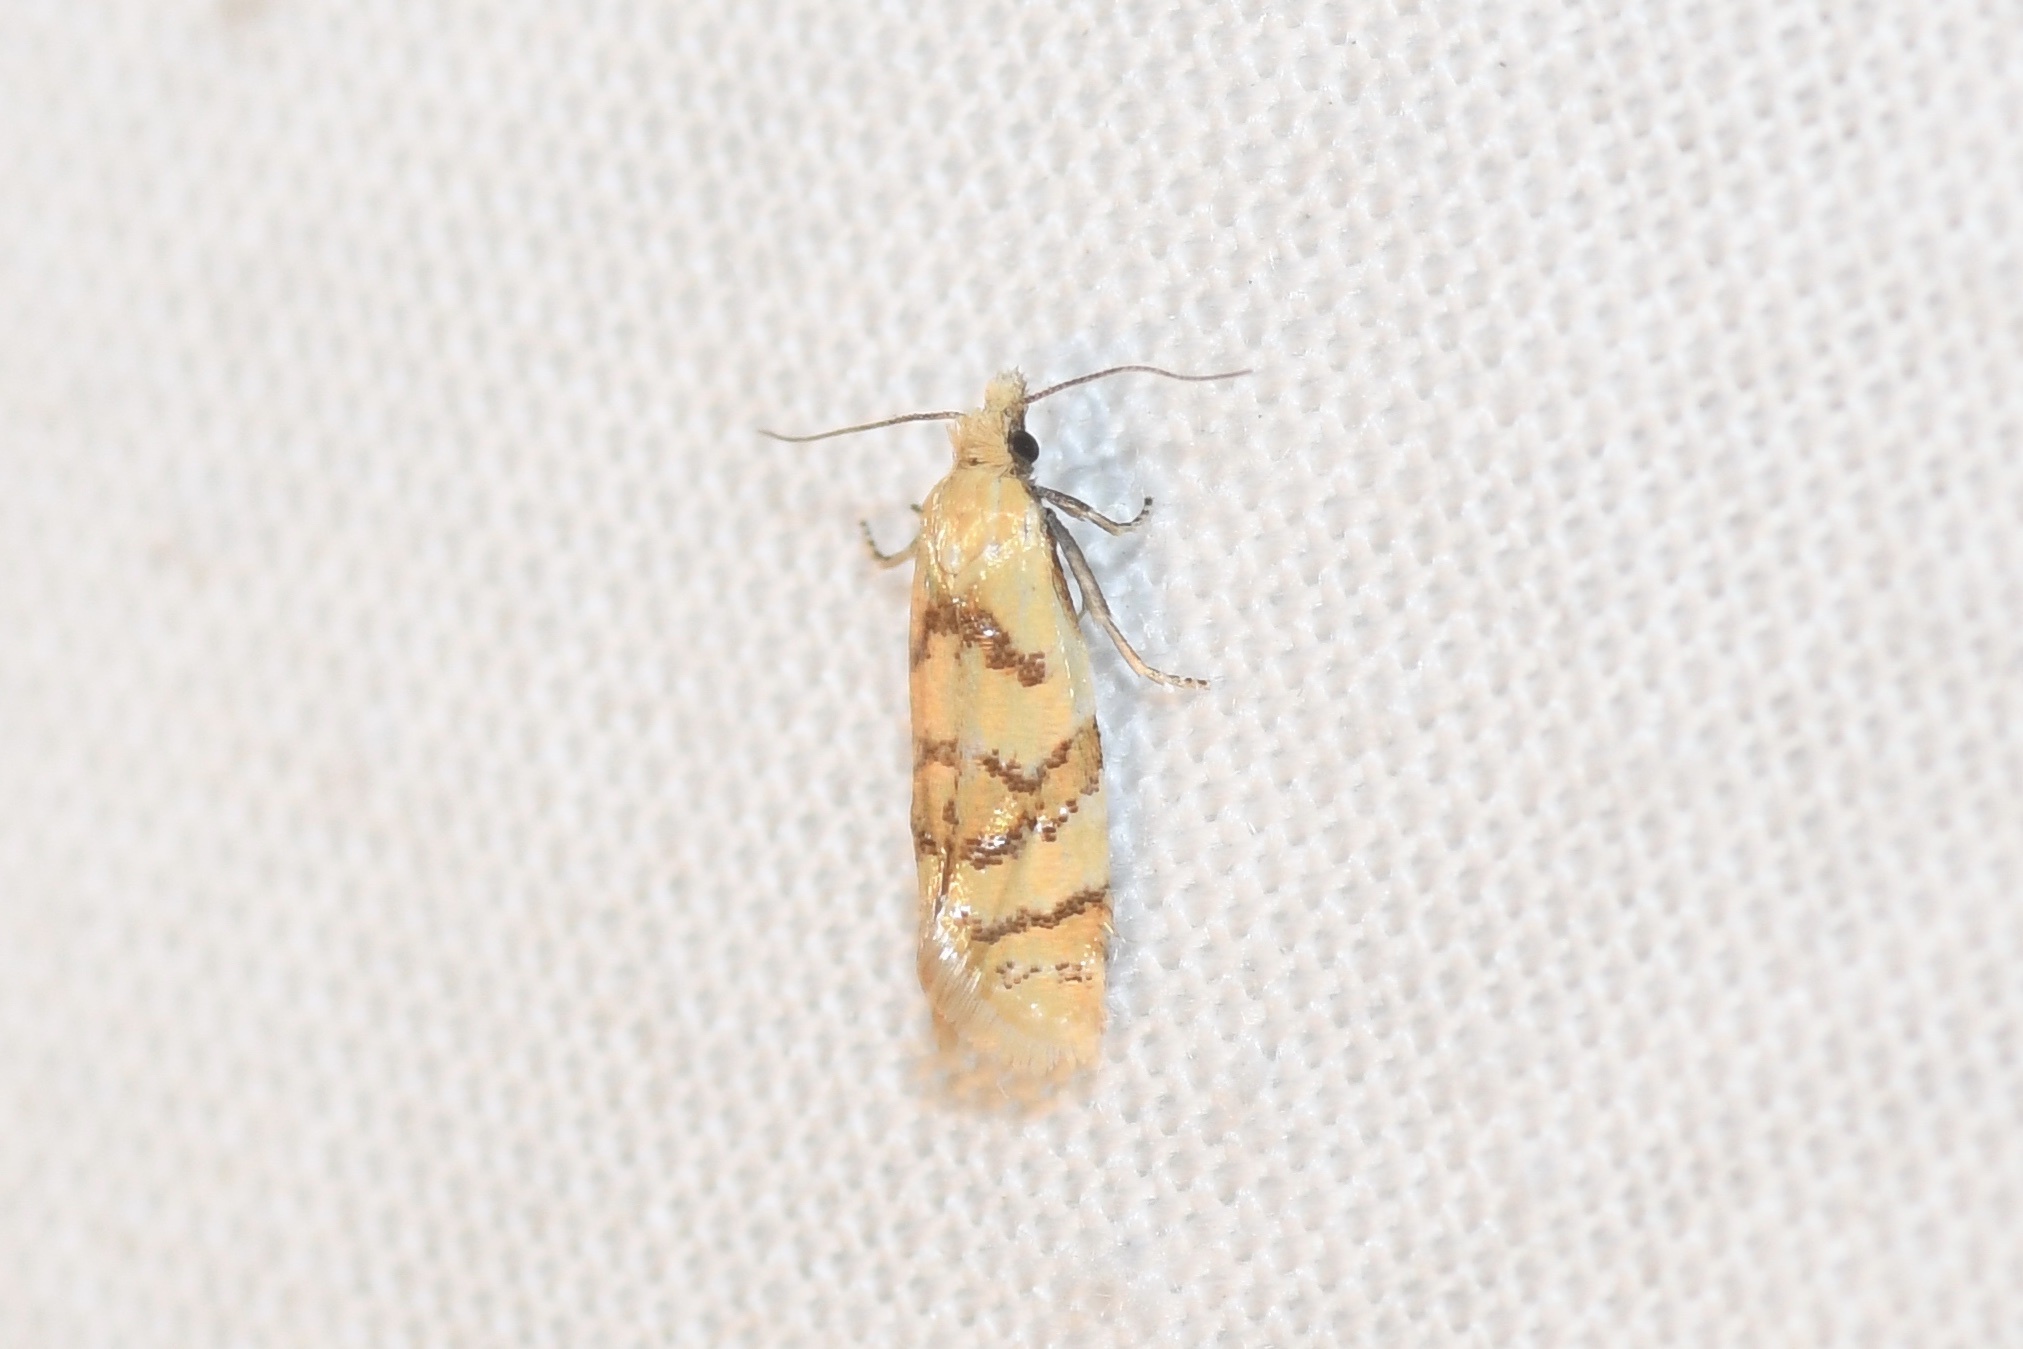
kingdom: Animalia
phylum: Arthropoda
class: Insecta
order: Lepidoptera
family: Tortricidae
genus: Phtheochroa
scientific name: Phtheochroa vitellinana
